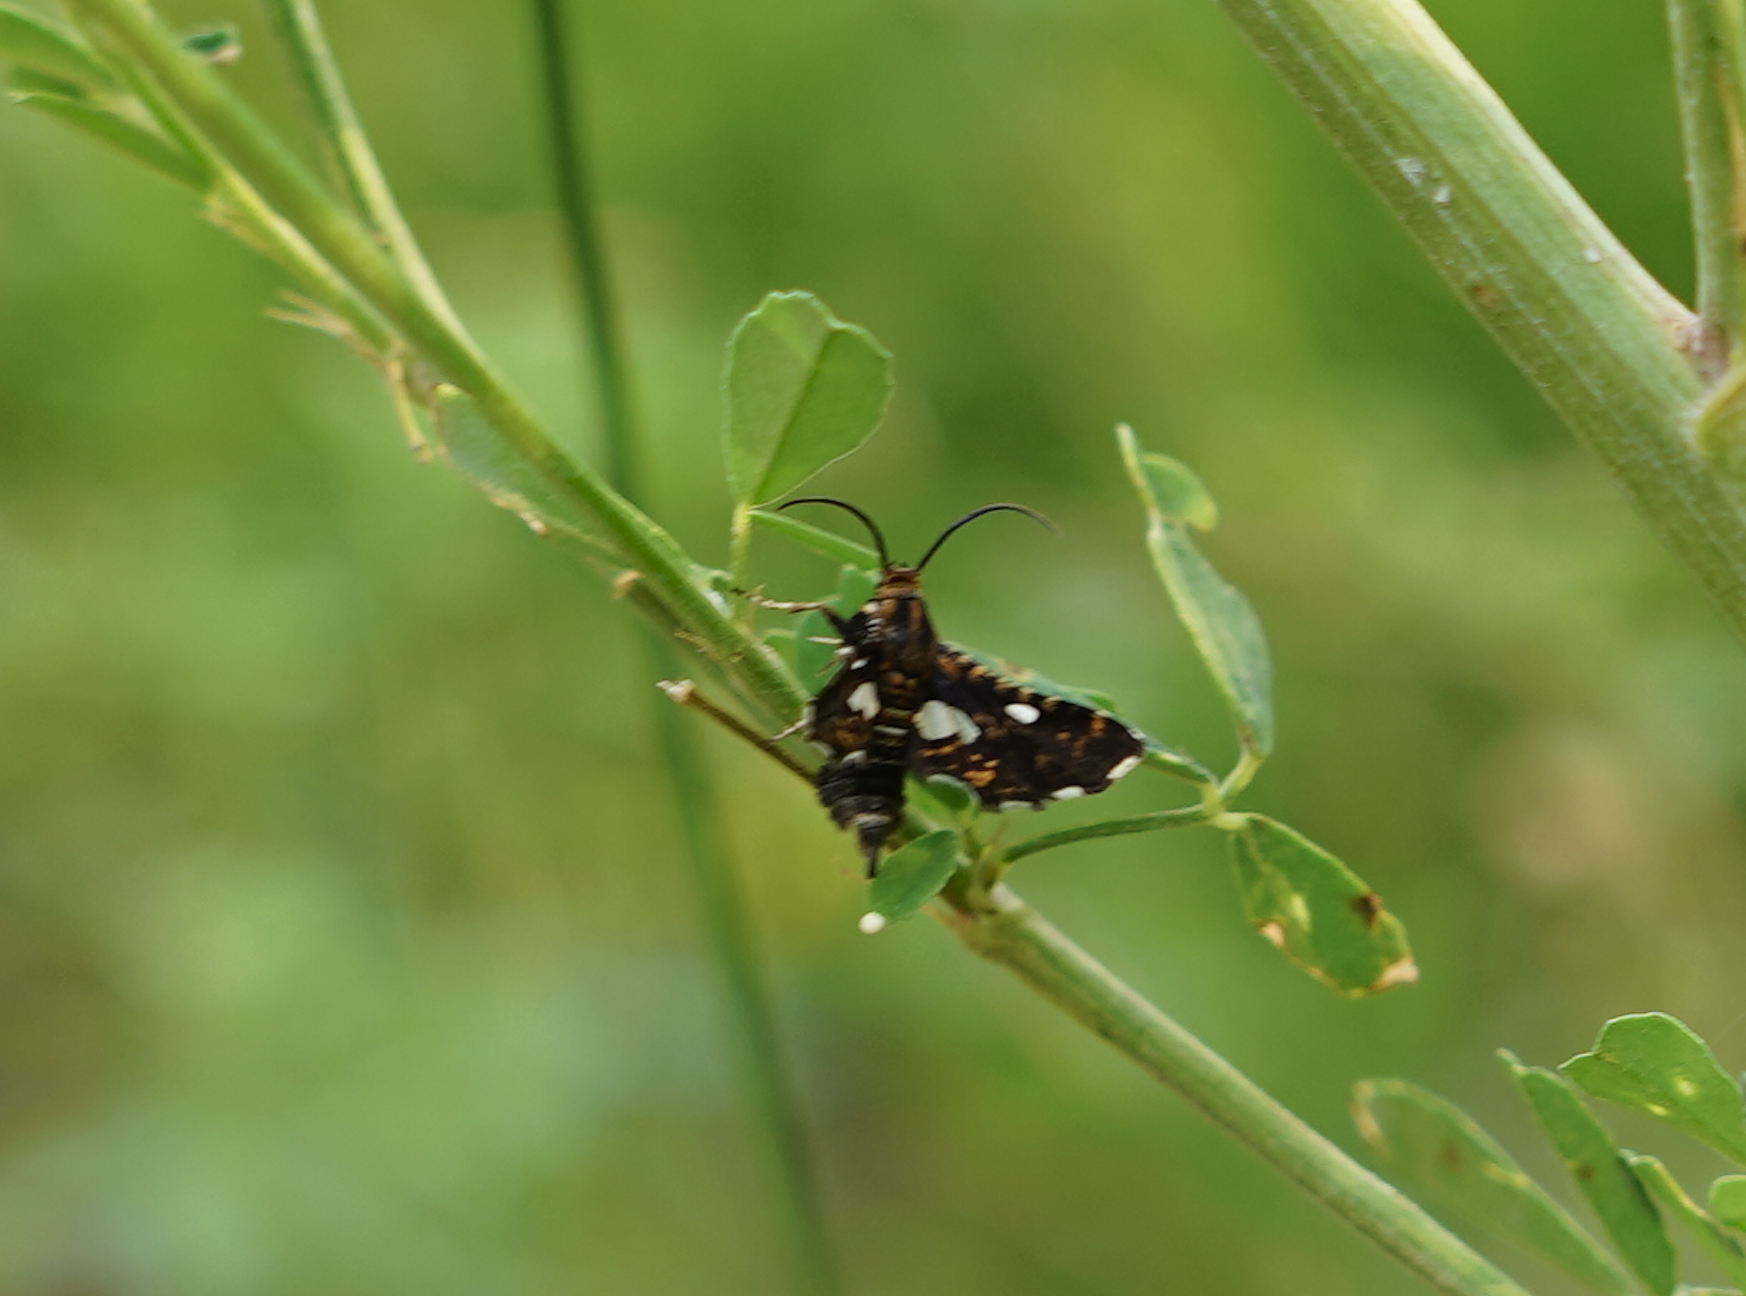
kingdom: Animalia
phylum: Arthropoda
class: Insecta
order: Lepidoptera
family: Thyrididae
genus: Thyris
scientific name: Thyris maculata
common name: Spotted thyris moth
